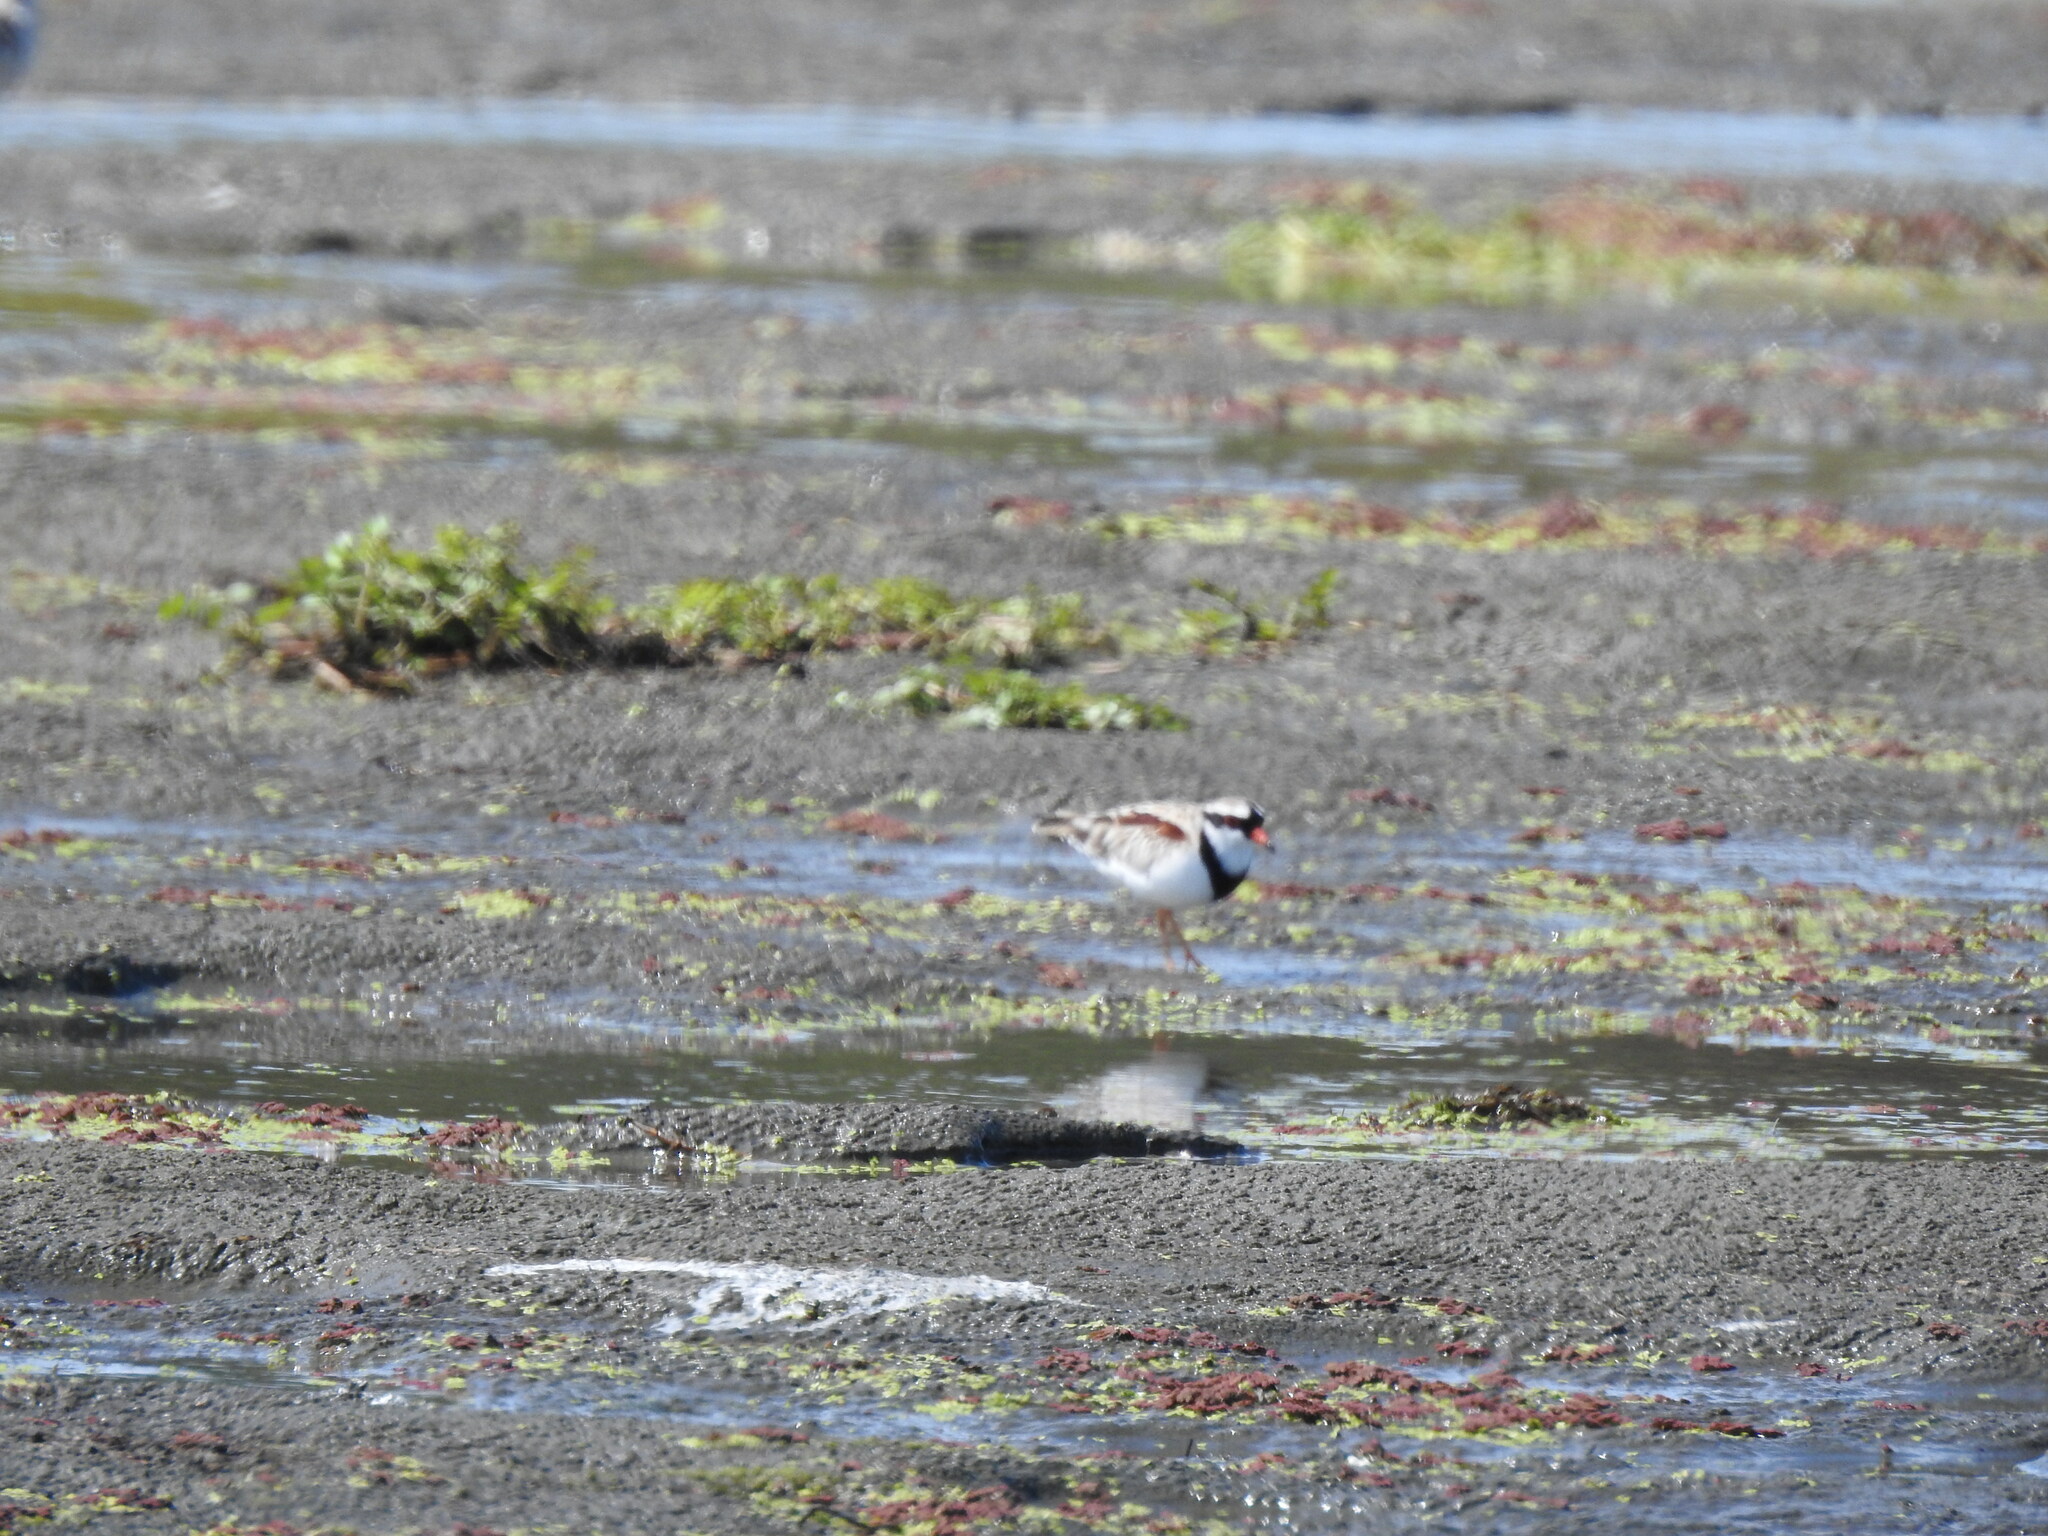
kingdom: Animalia
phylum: Chordata
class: Aves
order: Charadriiformes
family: Charadriidae
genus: Elseyornis
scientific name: Elseyornis melanops
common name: Black-fronted dotterel
